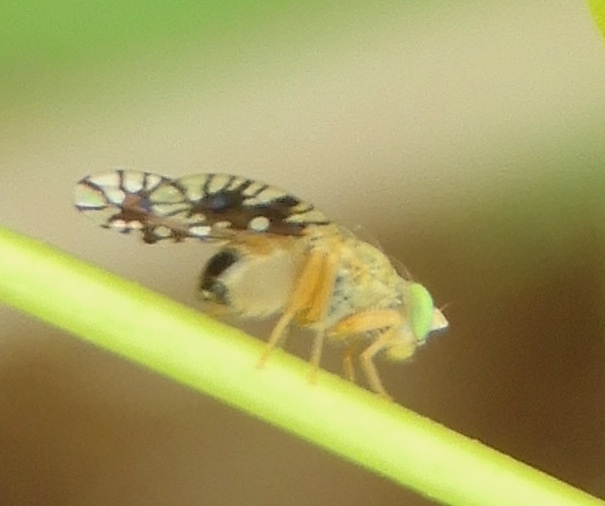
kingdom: Animalia
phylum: Arthropoda
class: Insecta
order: Diptera
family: Tephritidae
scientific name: Tephritidae
